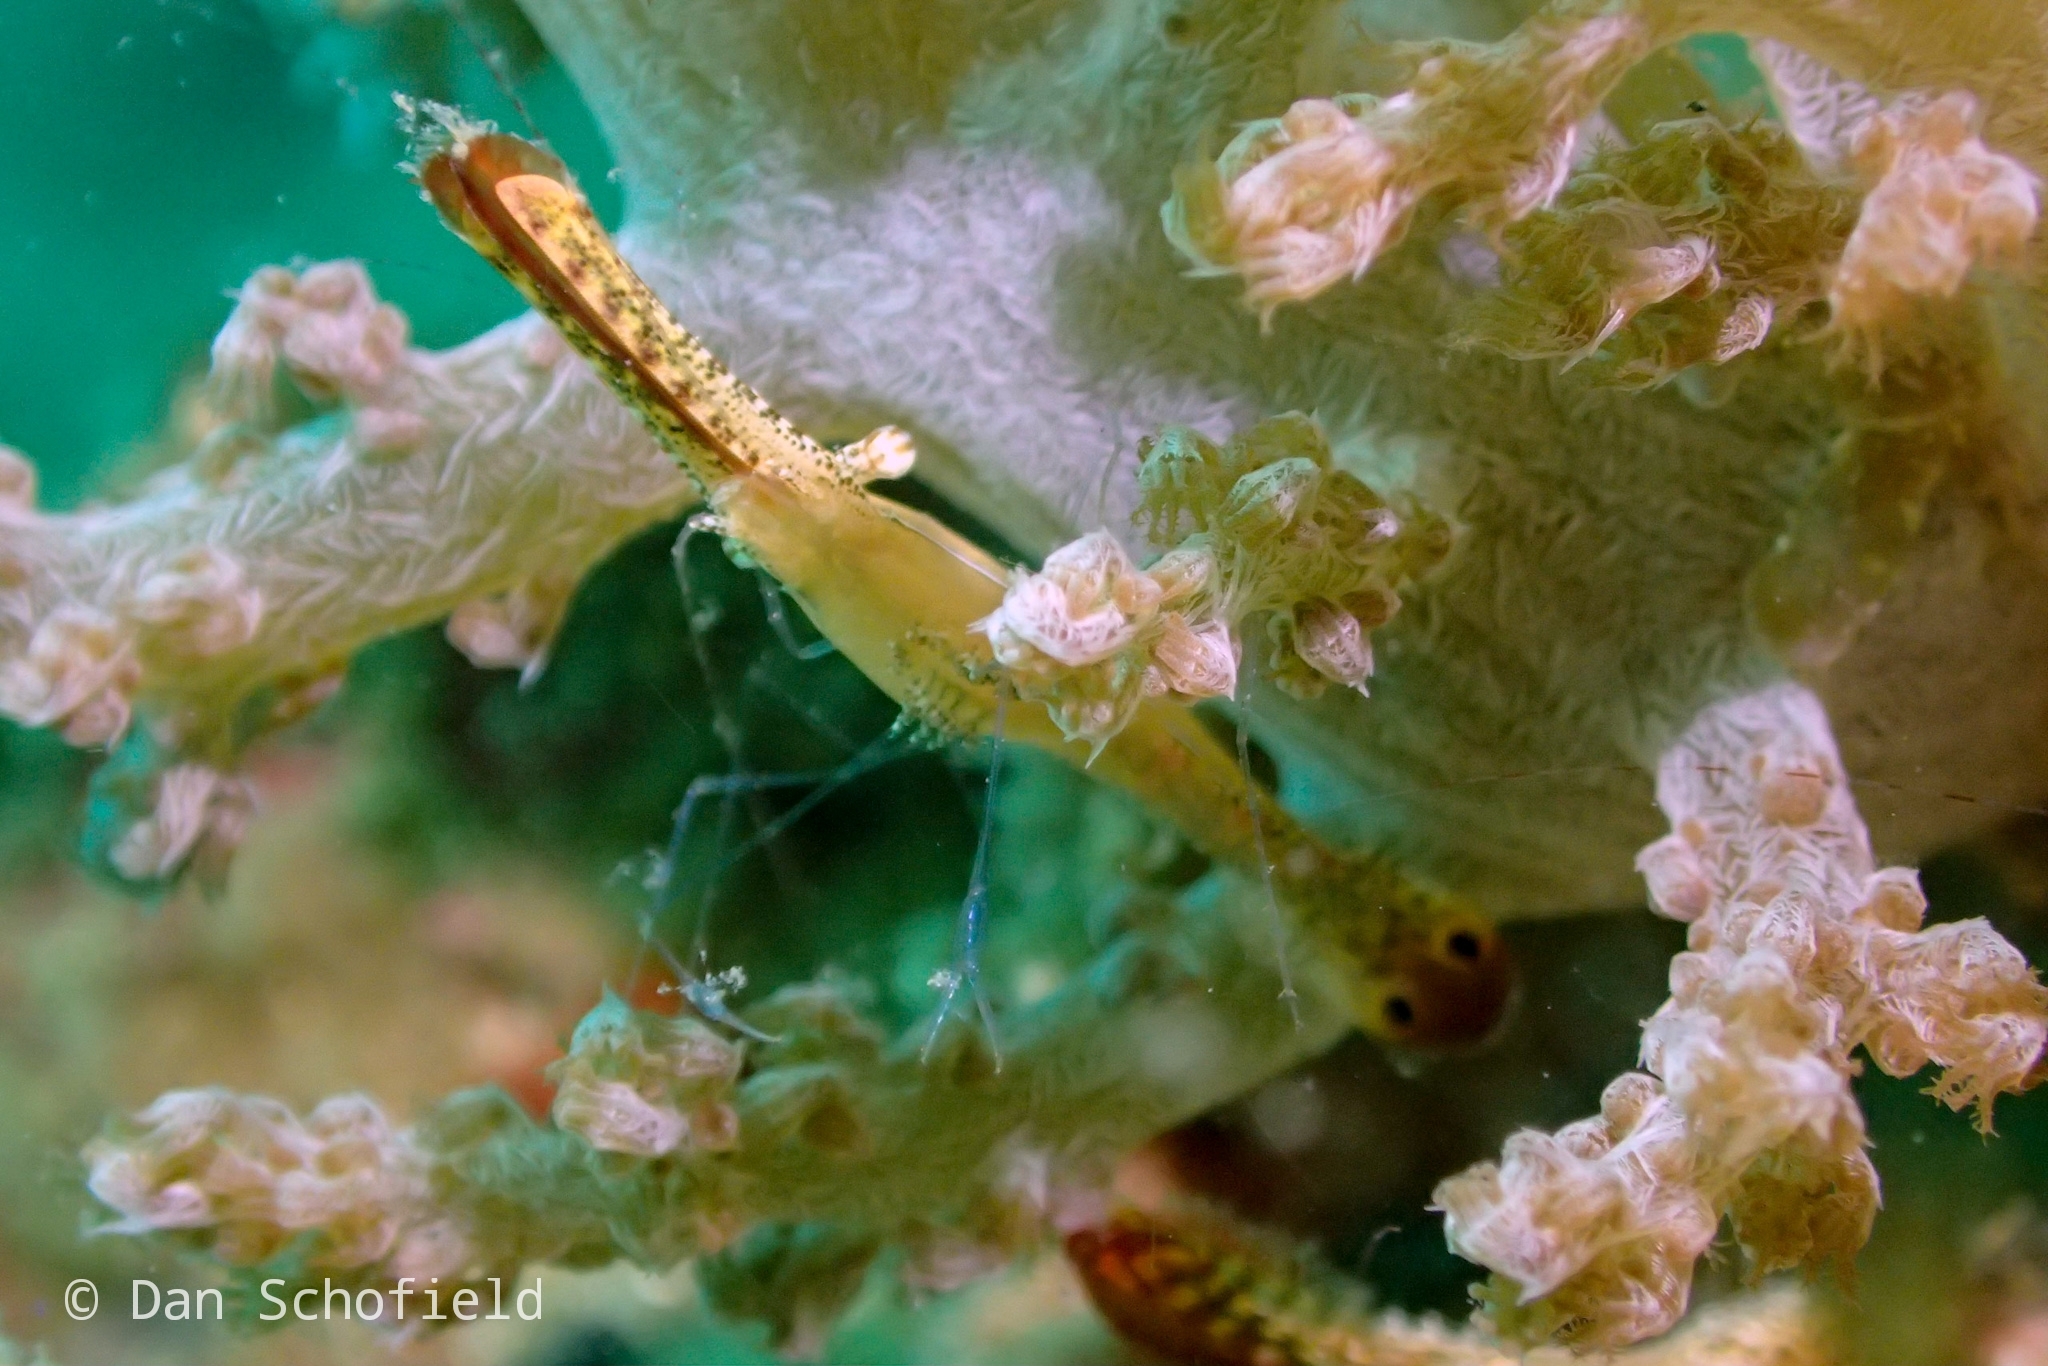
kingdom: Animalia
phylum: Arthropoda
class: Malacostraca
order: Decapoda
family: Palaemonidae
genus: Leander
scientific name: Leander plumosus
